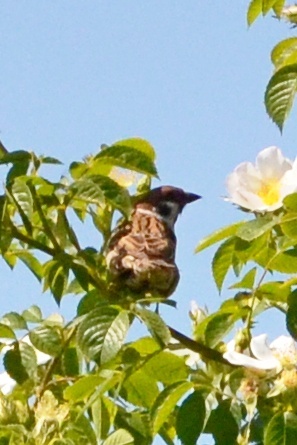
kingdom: Animalia
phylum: Chordata
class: Aves
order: Passeriformes
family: Passeridae
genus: Passer
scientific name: Passer montanus
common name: Eurasian tree sparrow
